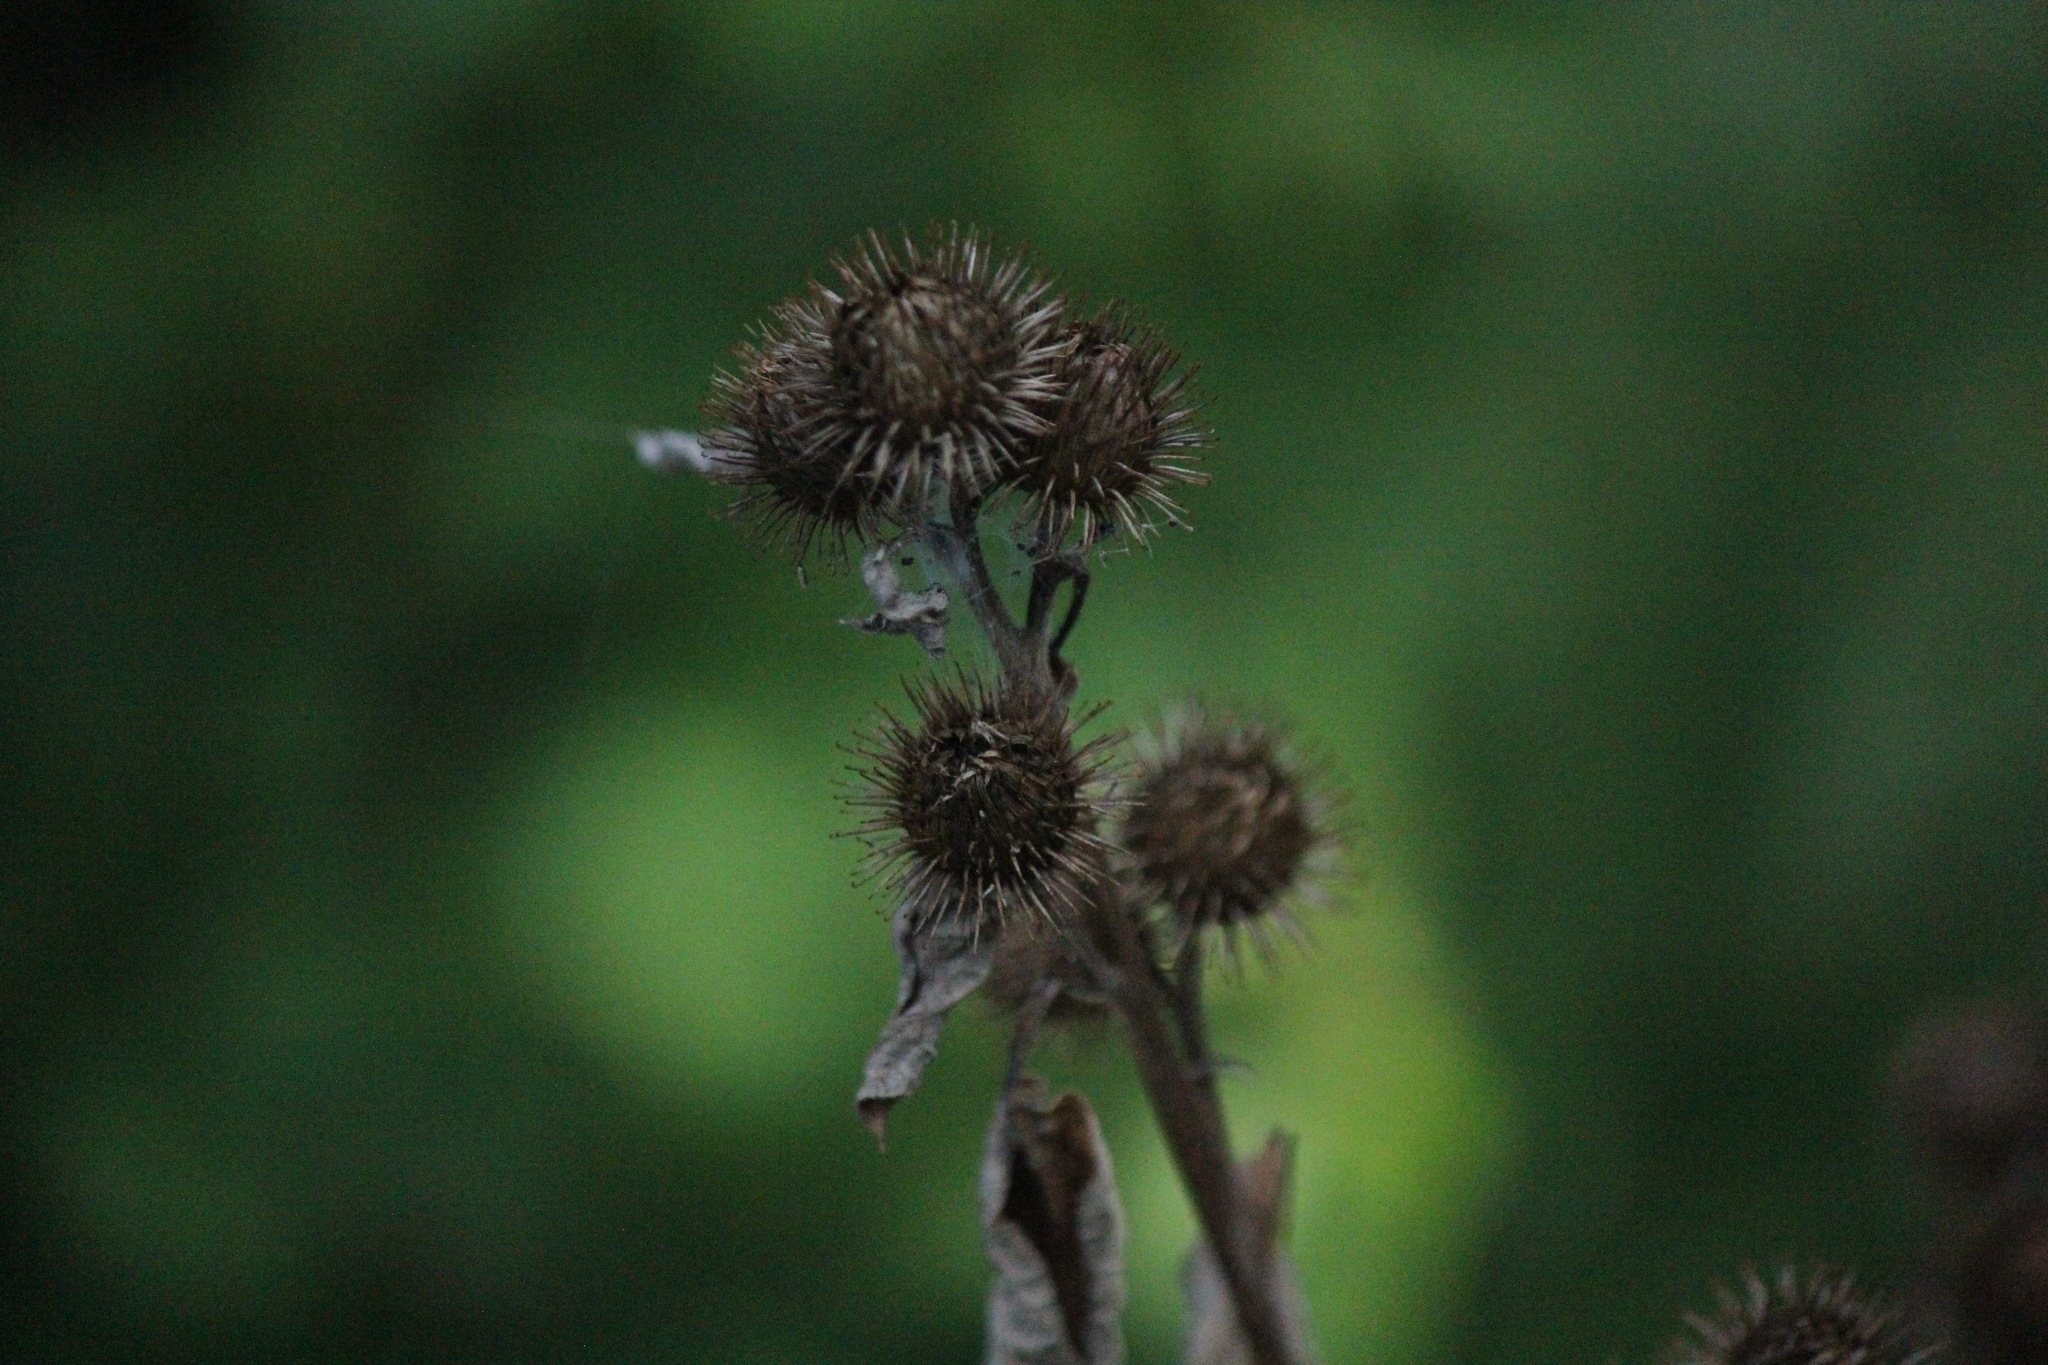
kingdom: Plantae
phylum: Tracheophyta
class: Magnoliopsida
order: Asterales
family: Asteraceae
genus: Arctium
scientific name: Arctium minus
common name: Lesser burdock
